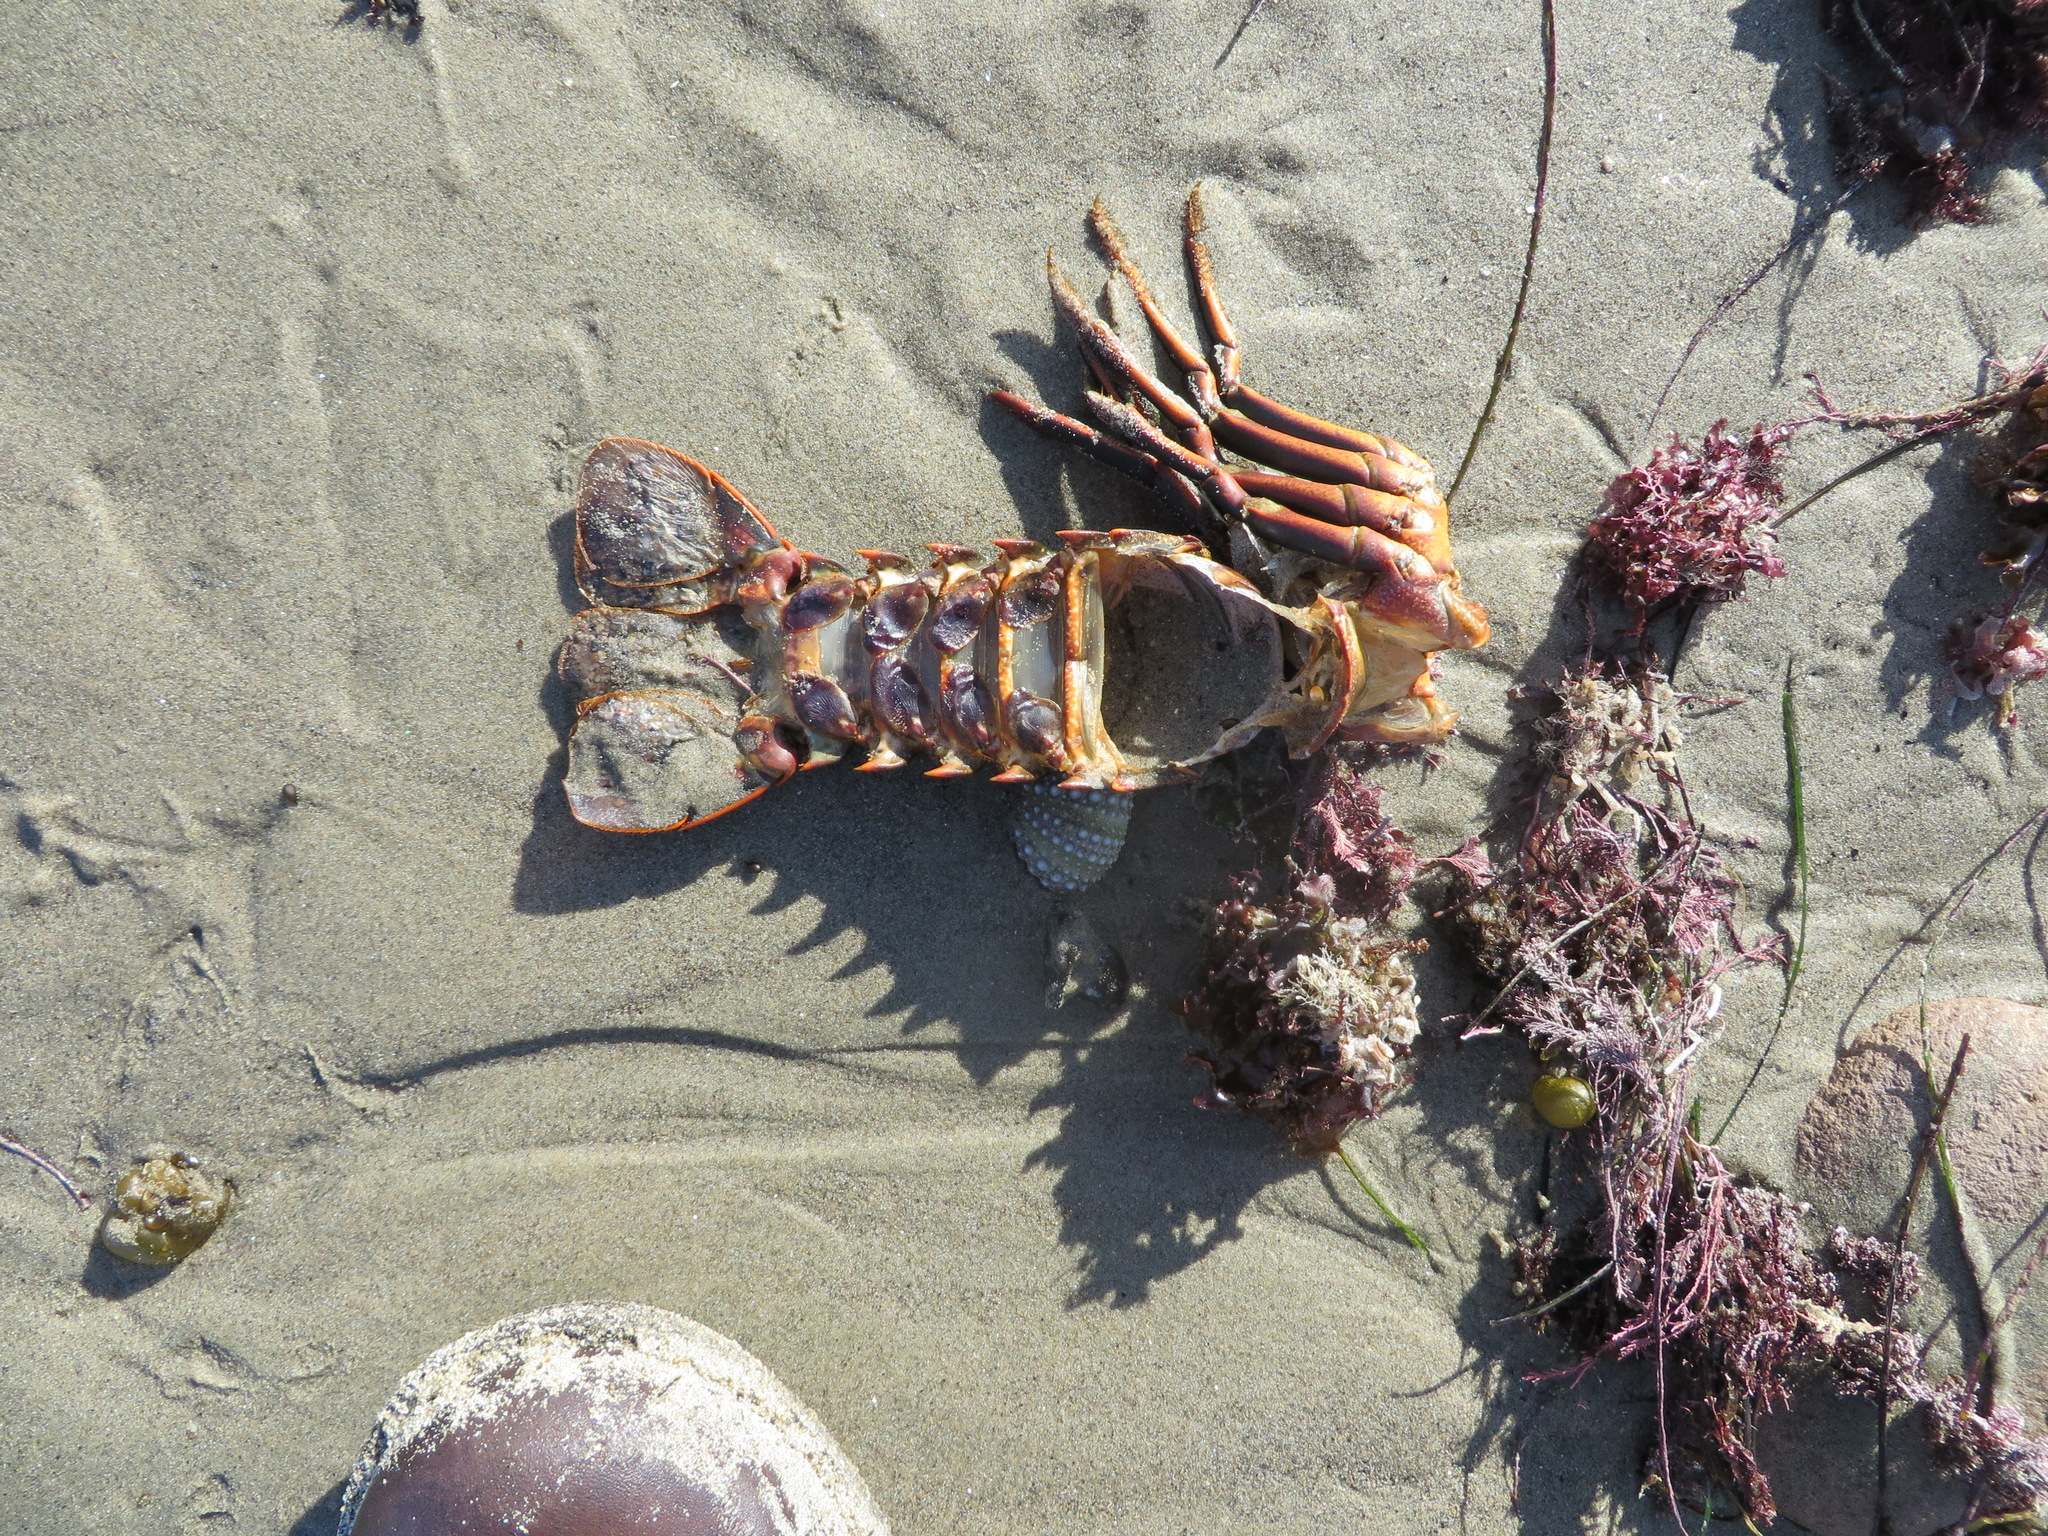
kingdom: Animalia
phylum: Arthropoda
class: Malacostraca
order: Decapoda
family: Palinuridae
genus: Panulirus
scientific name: Panulirus interruptus
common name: California spiny lobster
